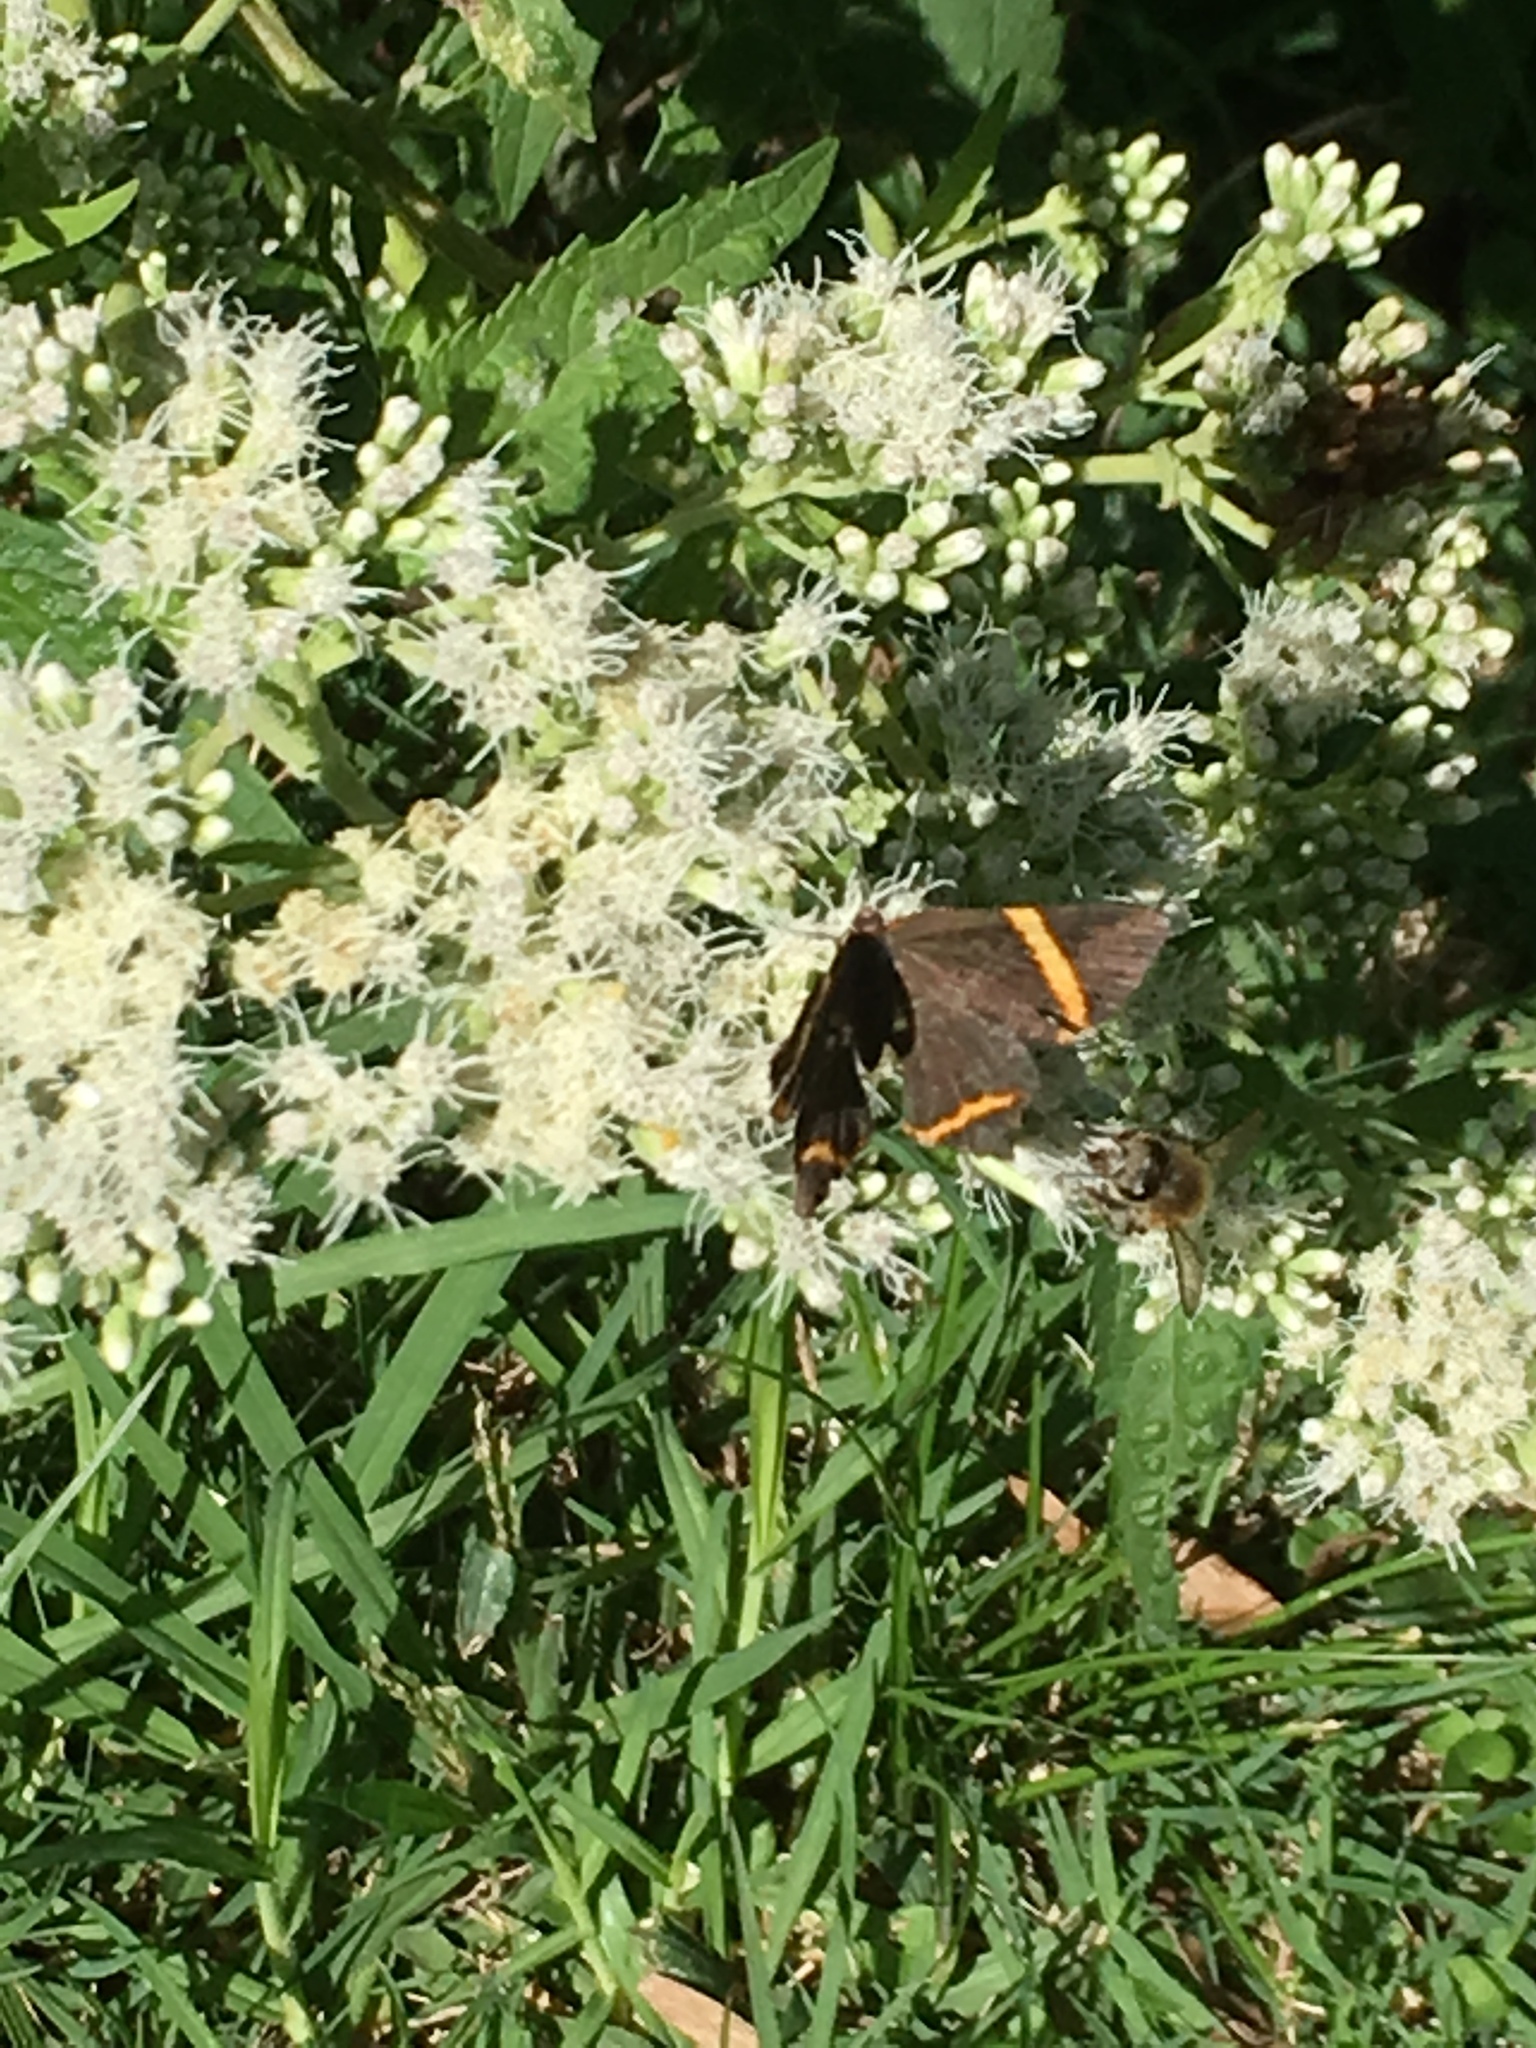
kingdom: Animalia
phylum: Arthropoda
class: Insecta
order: Lepidoptera
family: Riodinidae
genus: Riodina
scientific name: Riodina lysippoides
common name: Little dancer metalmark
